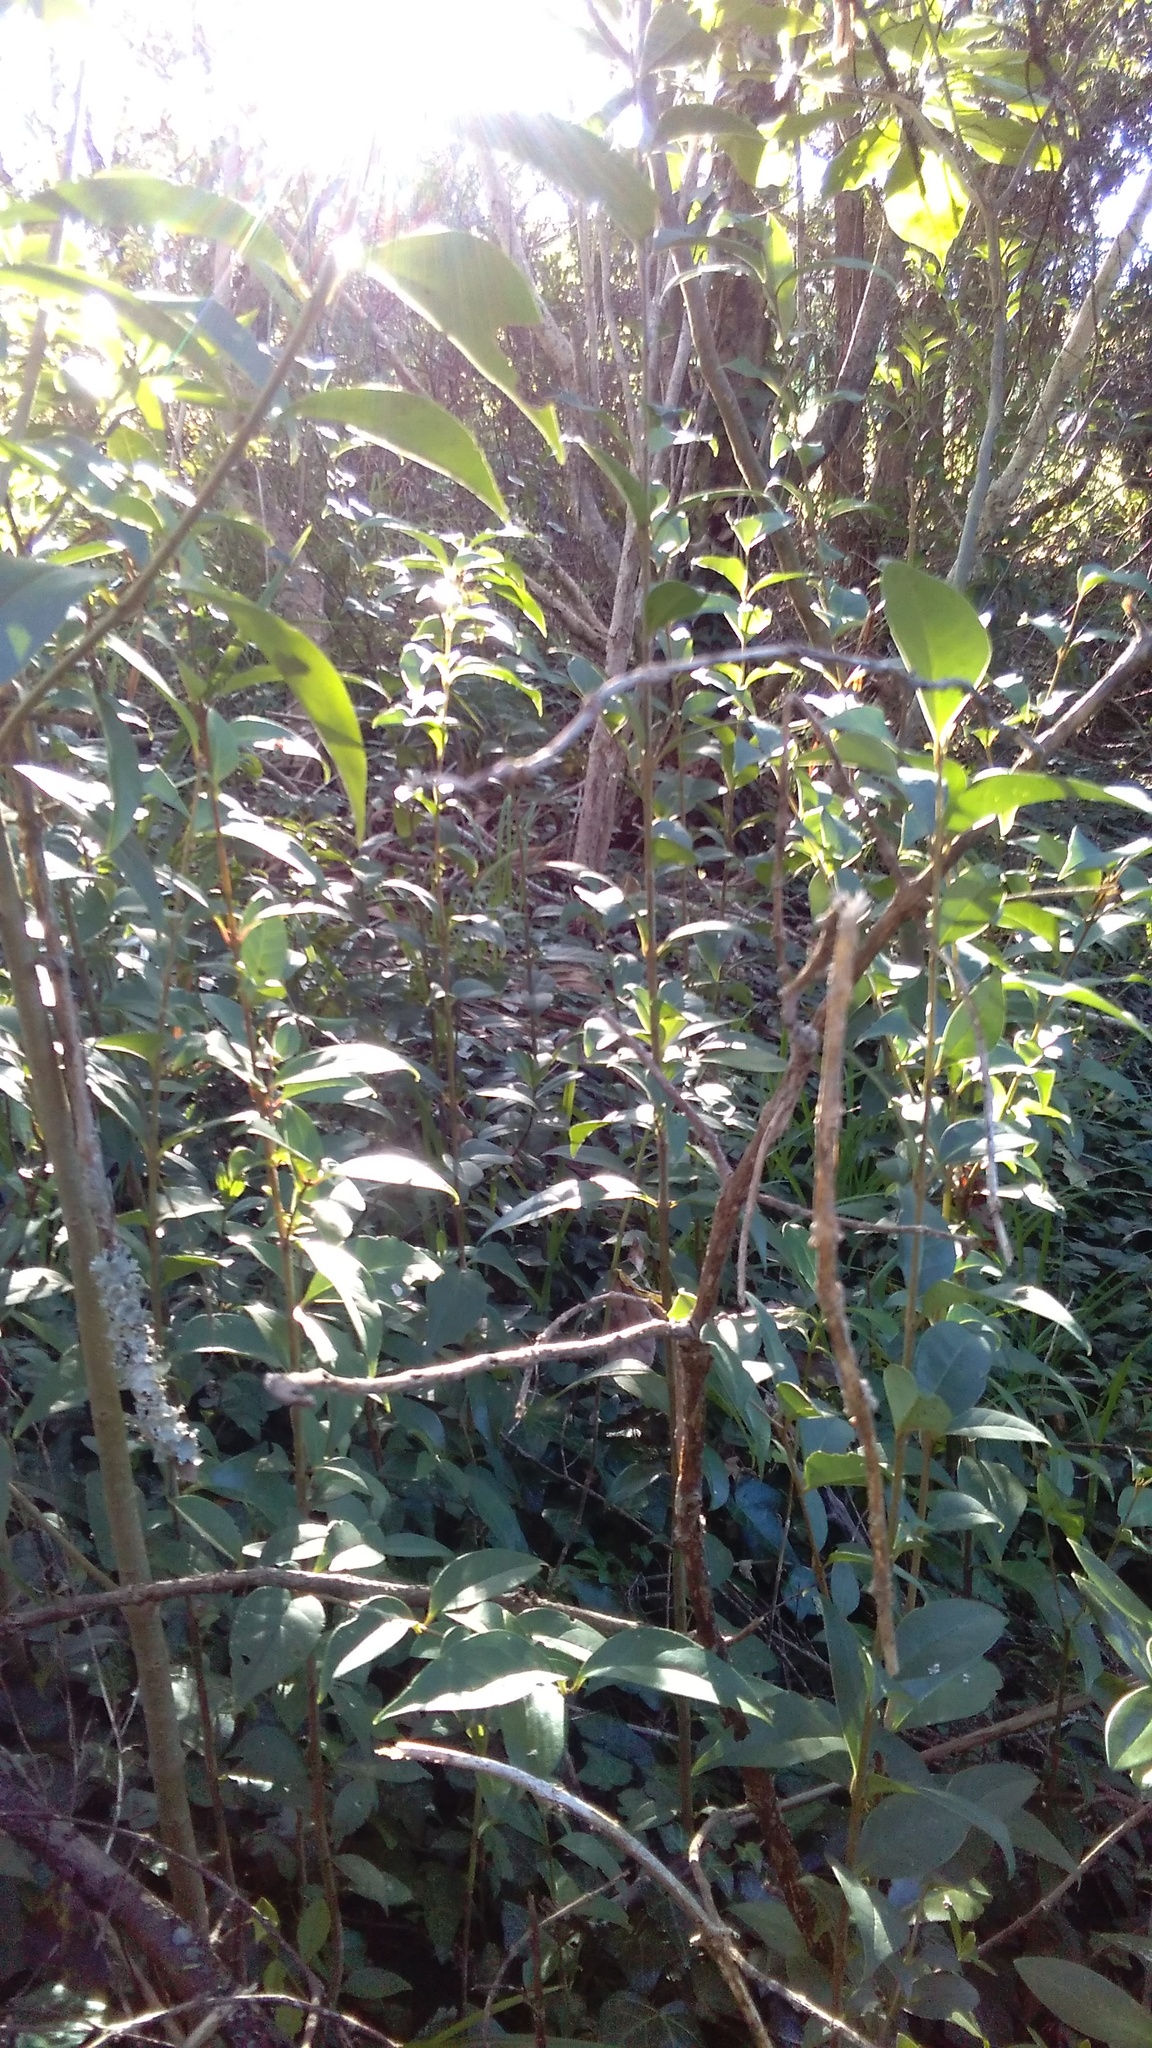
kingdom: Plantae
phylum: Tracheophyta
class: Magnoliopsida
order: Lamiales
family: Oleaceae
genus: Ligustrum
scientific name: Ligustrum lucidum
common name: Glossy privet
